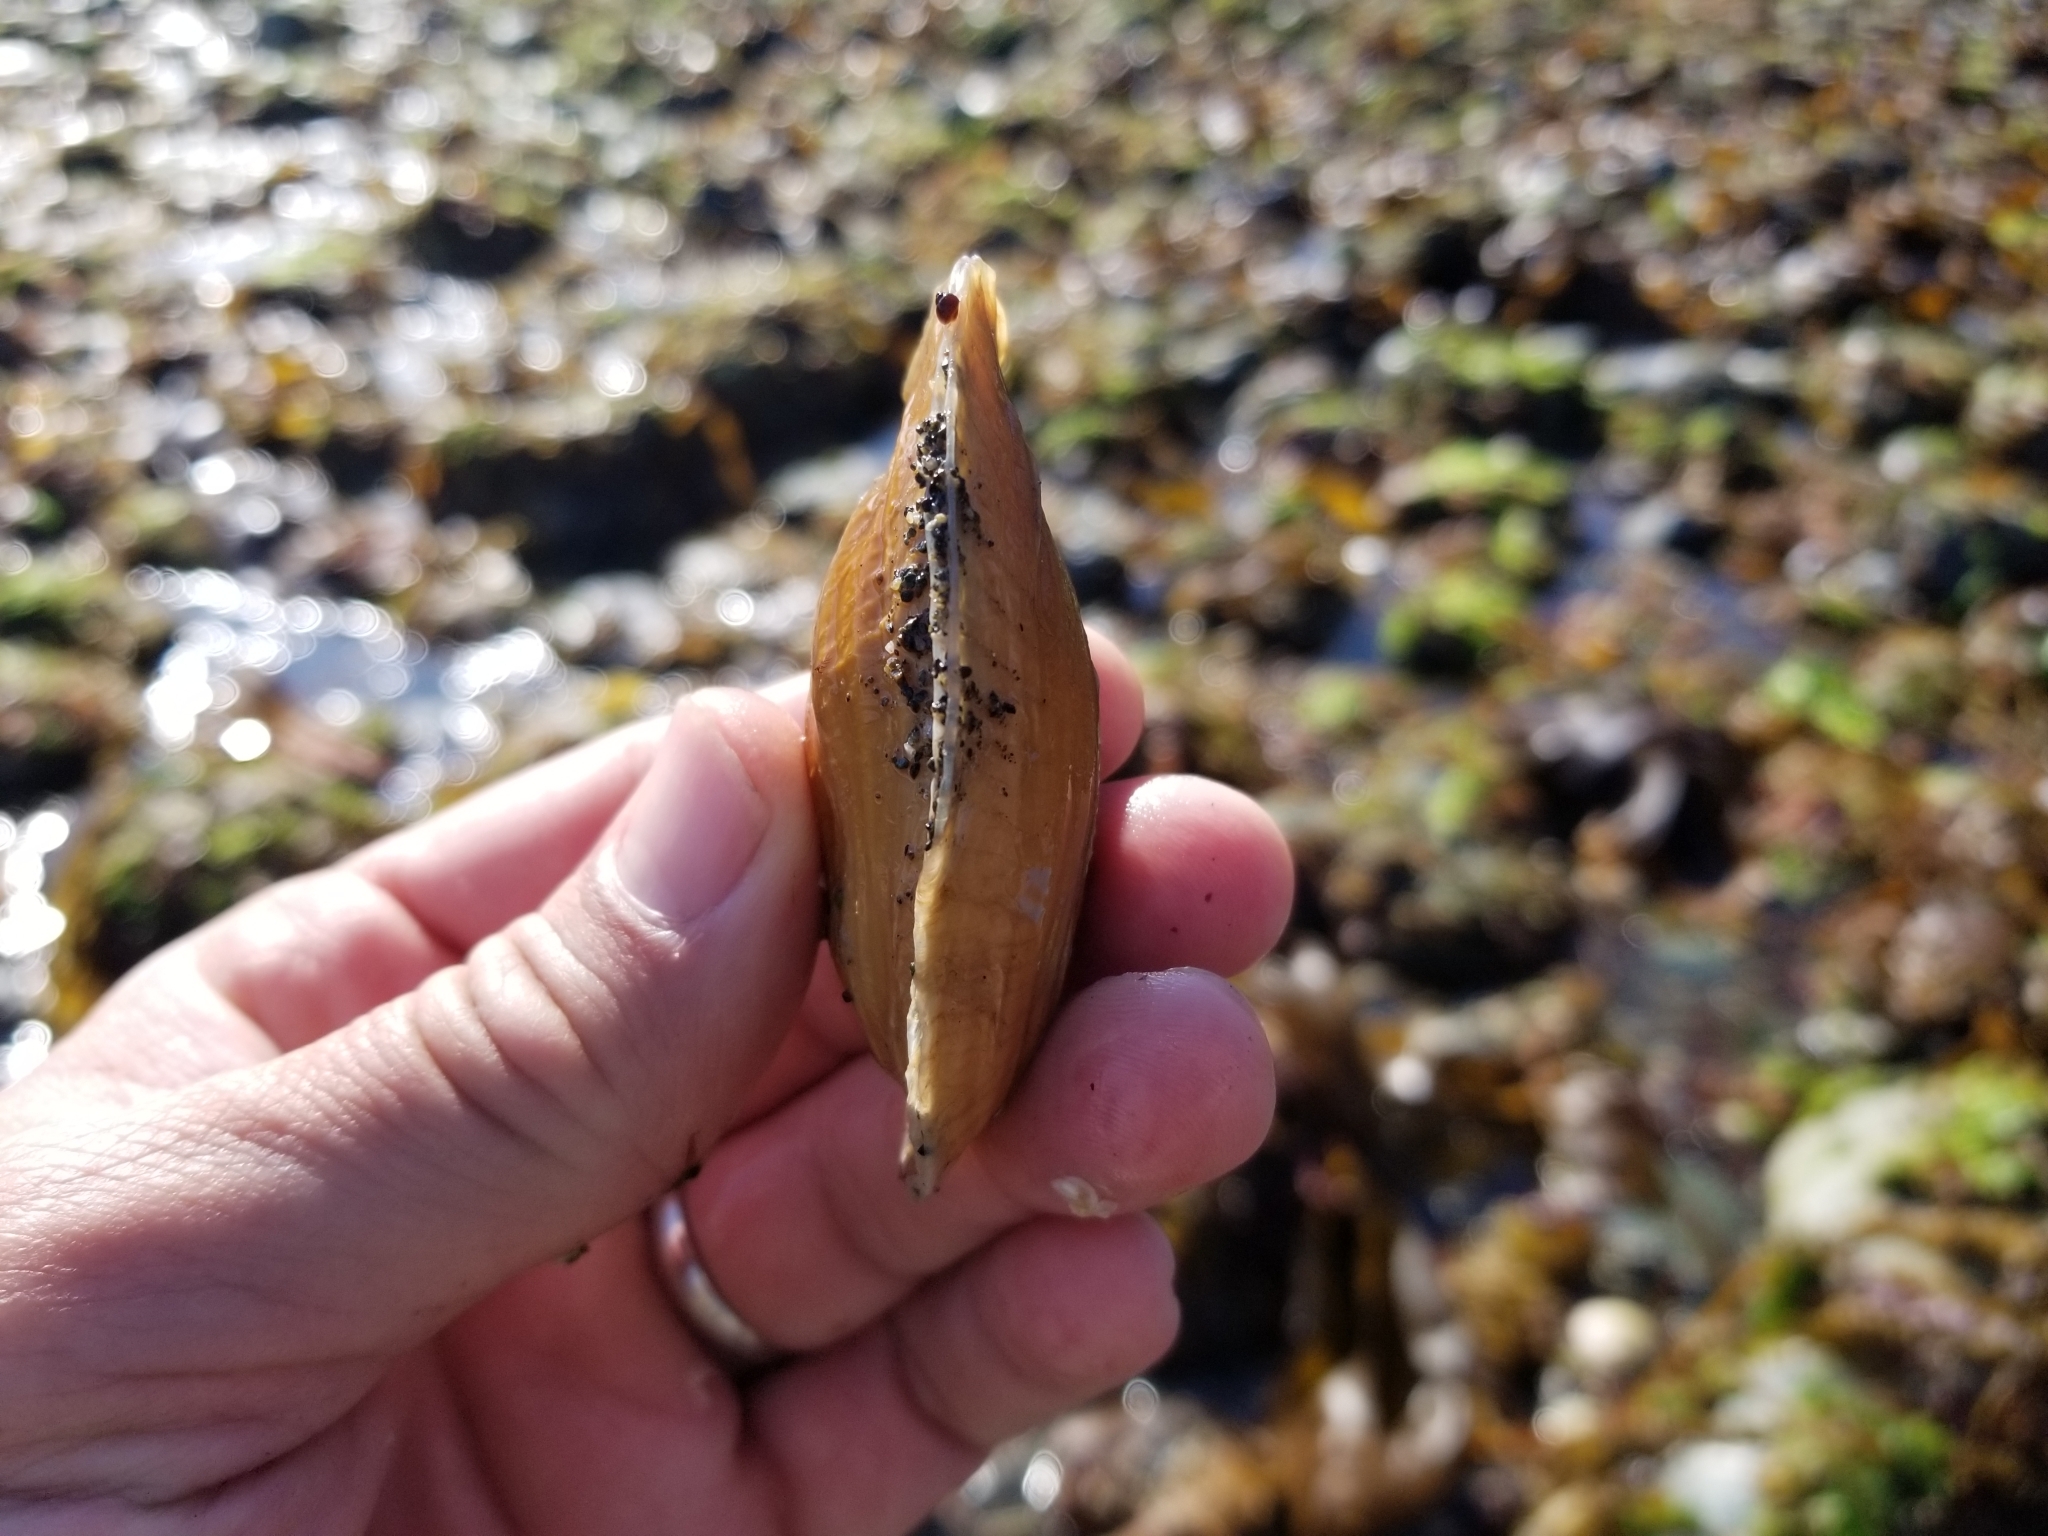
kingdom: Animalia
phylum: Mollusca
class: Bivalvia
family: Lyonsiidae
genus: Entodesma
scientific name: Entodesma navicula
